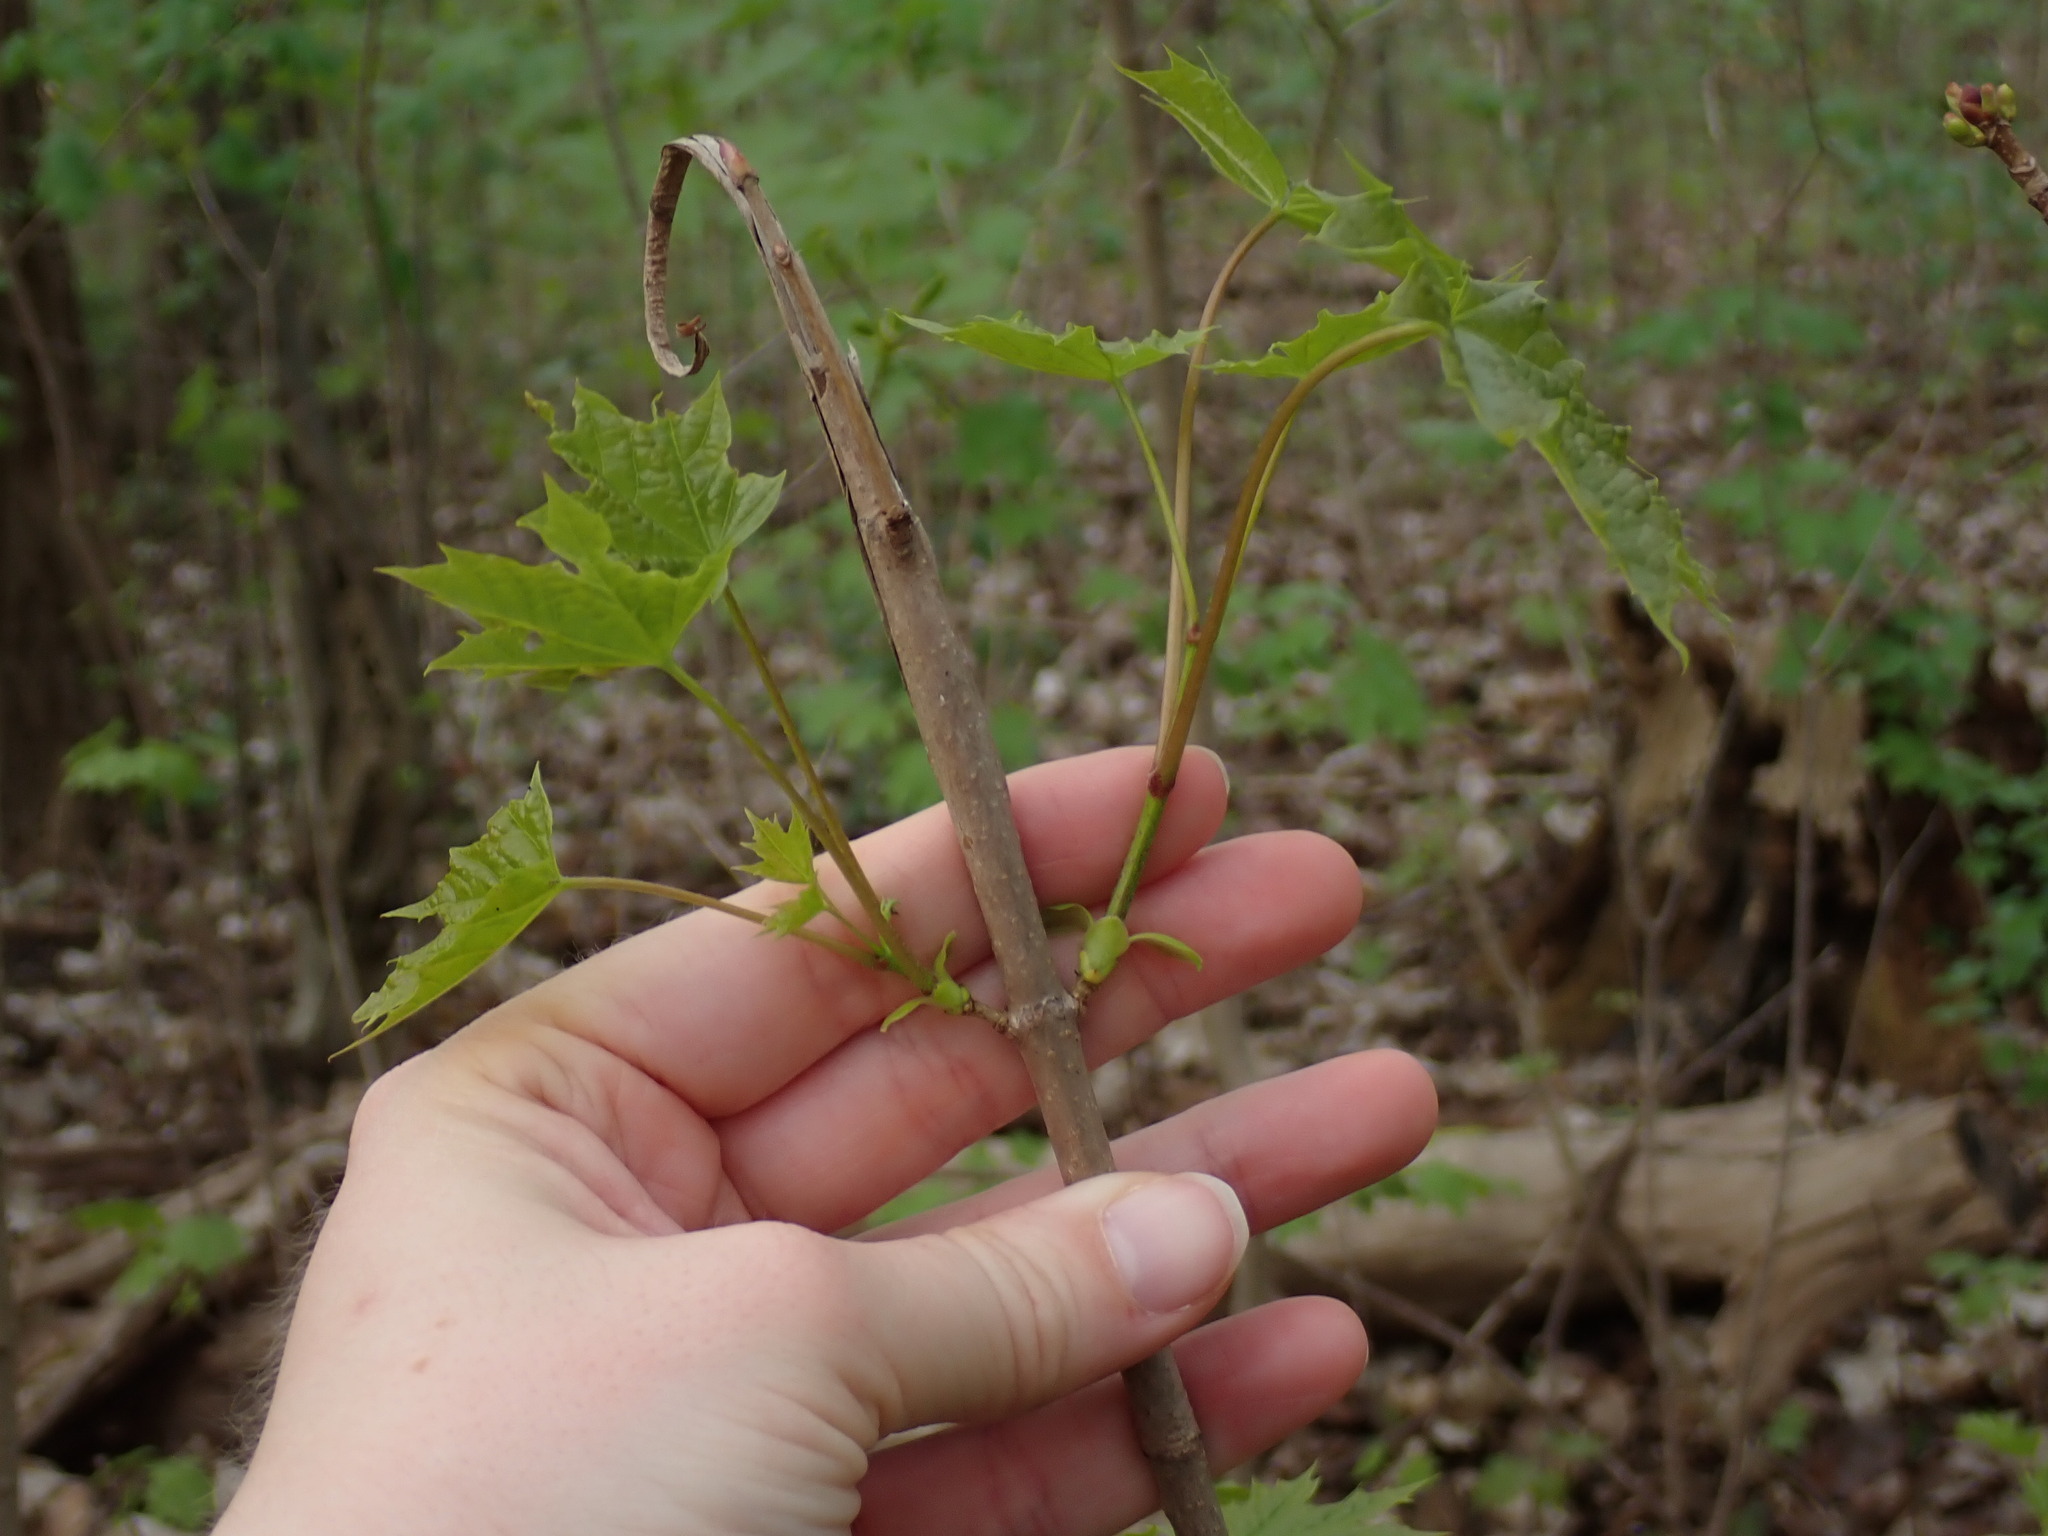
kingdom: Plantae
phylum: Tracheophyta
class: Magnoliopsida
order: Sapindales
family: Sapindaceae
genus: Acer
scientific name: Acer platanoides
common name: Norway maple
